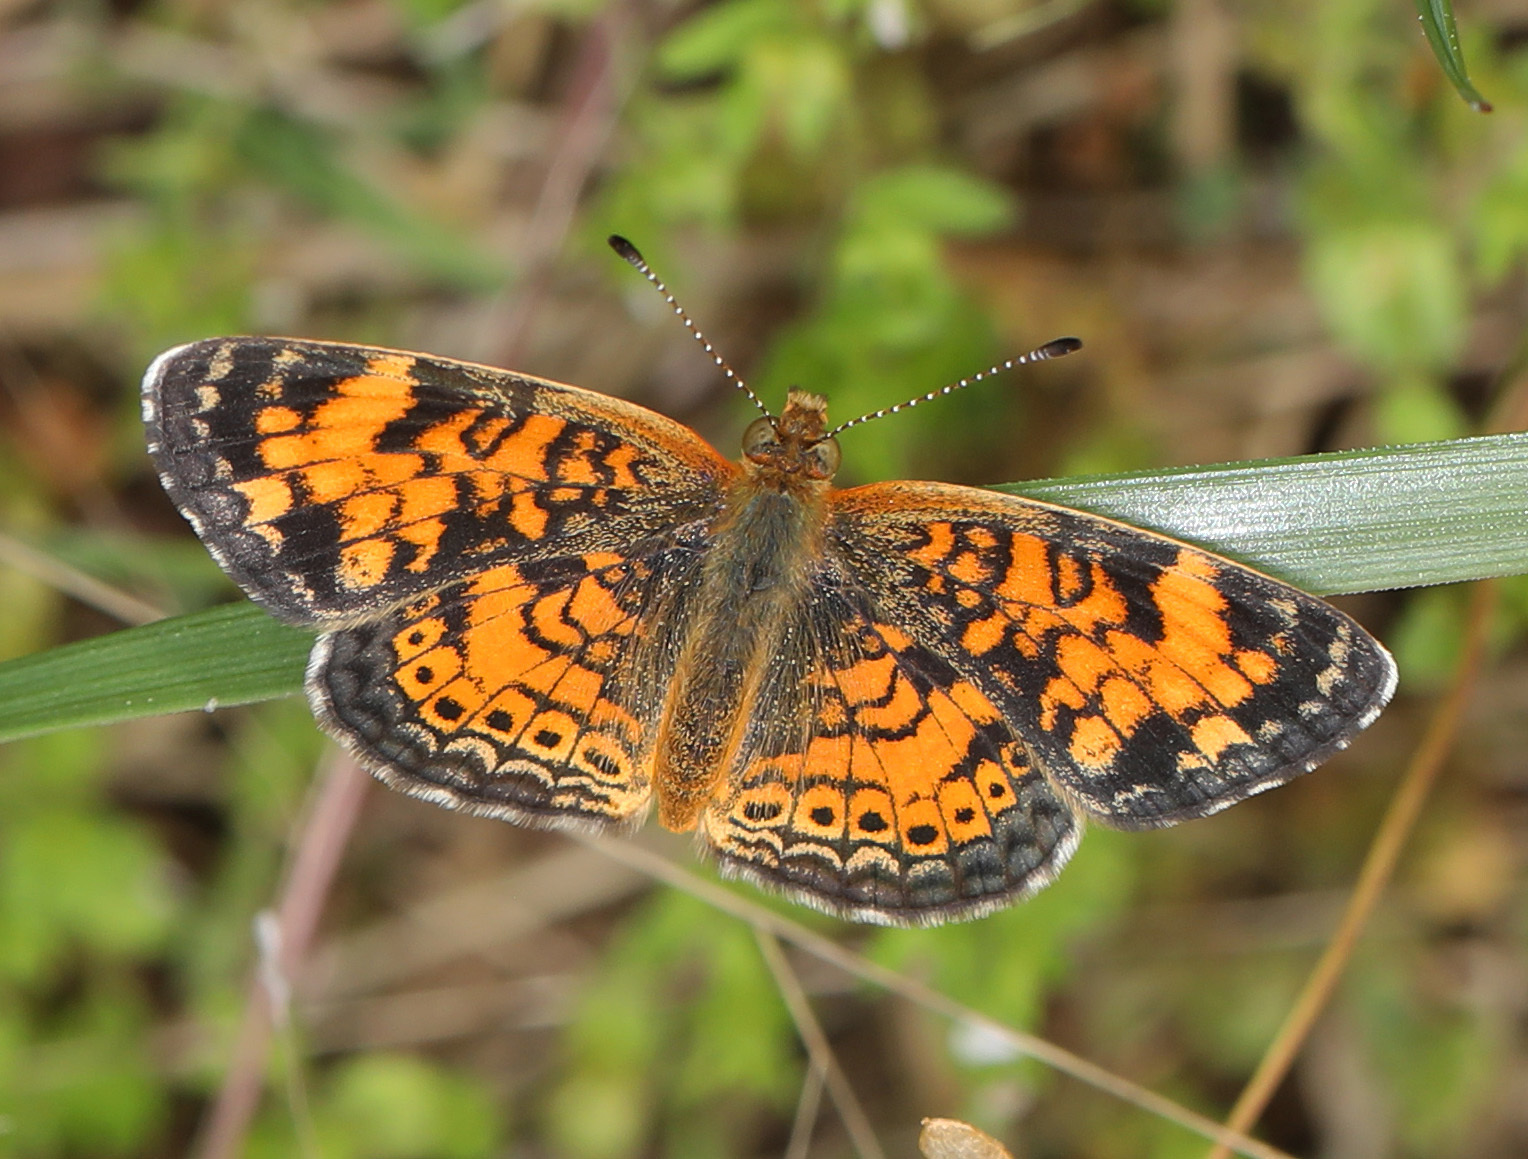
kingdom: Animalia
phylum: Arthropoda
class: Insecta
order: Lepidoptera
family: Nymphalidae
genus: Phyciodes
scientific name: Phyciodes tharos
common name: Pearl crescent
